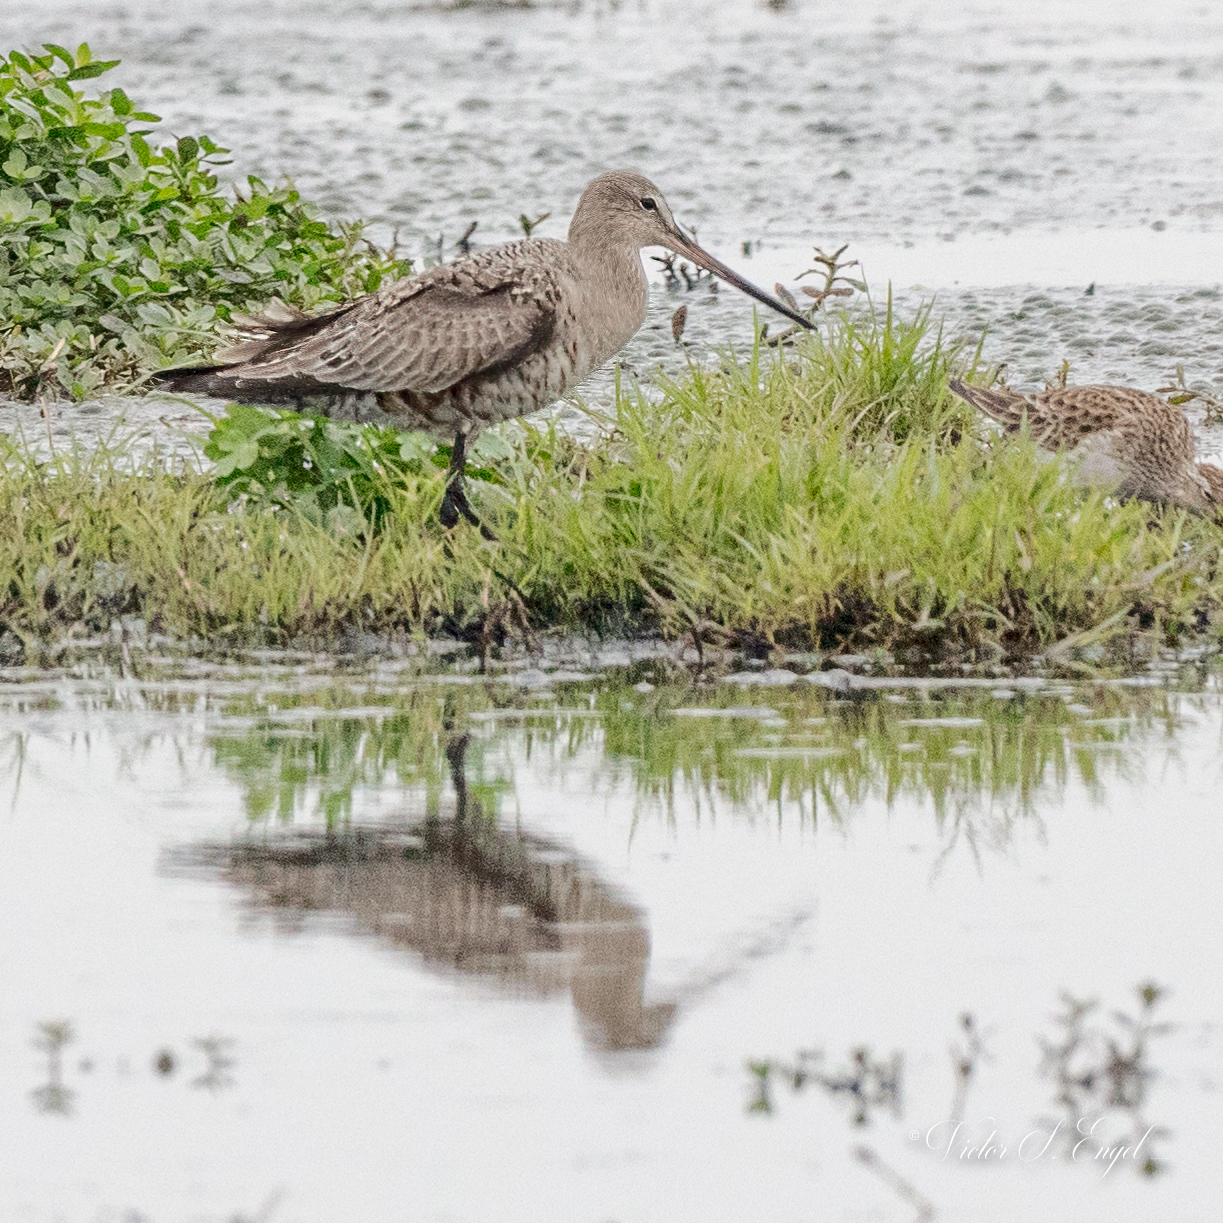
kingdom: Animalia
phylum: Chordata
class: Aves
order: Charadriiformes
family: Scolopacidae
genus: Limosa
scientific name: Limosa haemastica
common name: Hudsonian godwit
